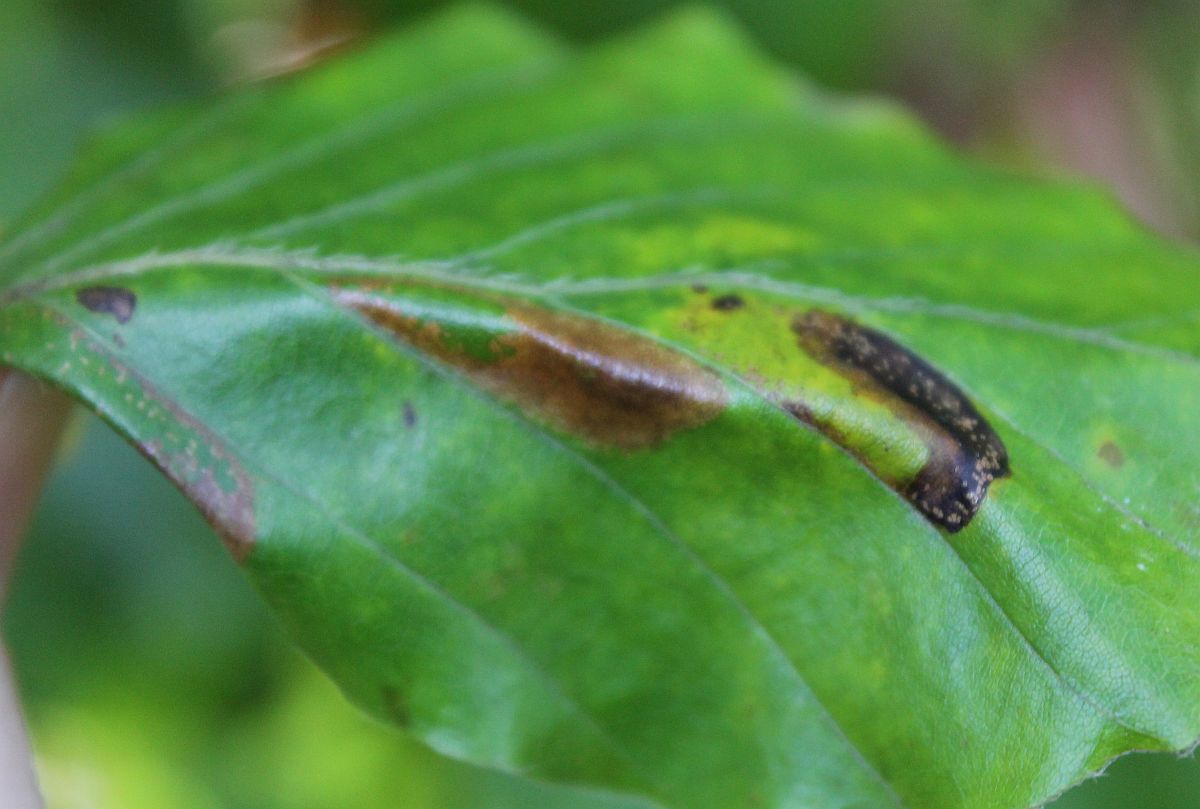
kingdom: Animalia
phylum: Arthropoda
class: Insecta
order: Lepidoptera
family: Gracillariidae
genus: Phyllonorycter
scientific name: Phyllonorycter maestingella
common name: Beech midget
